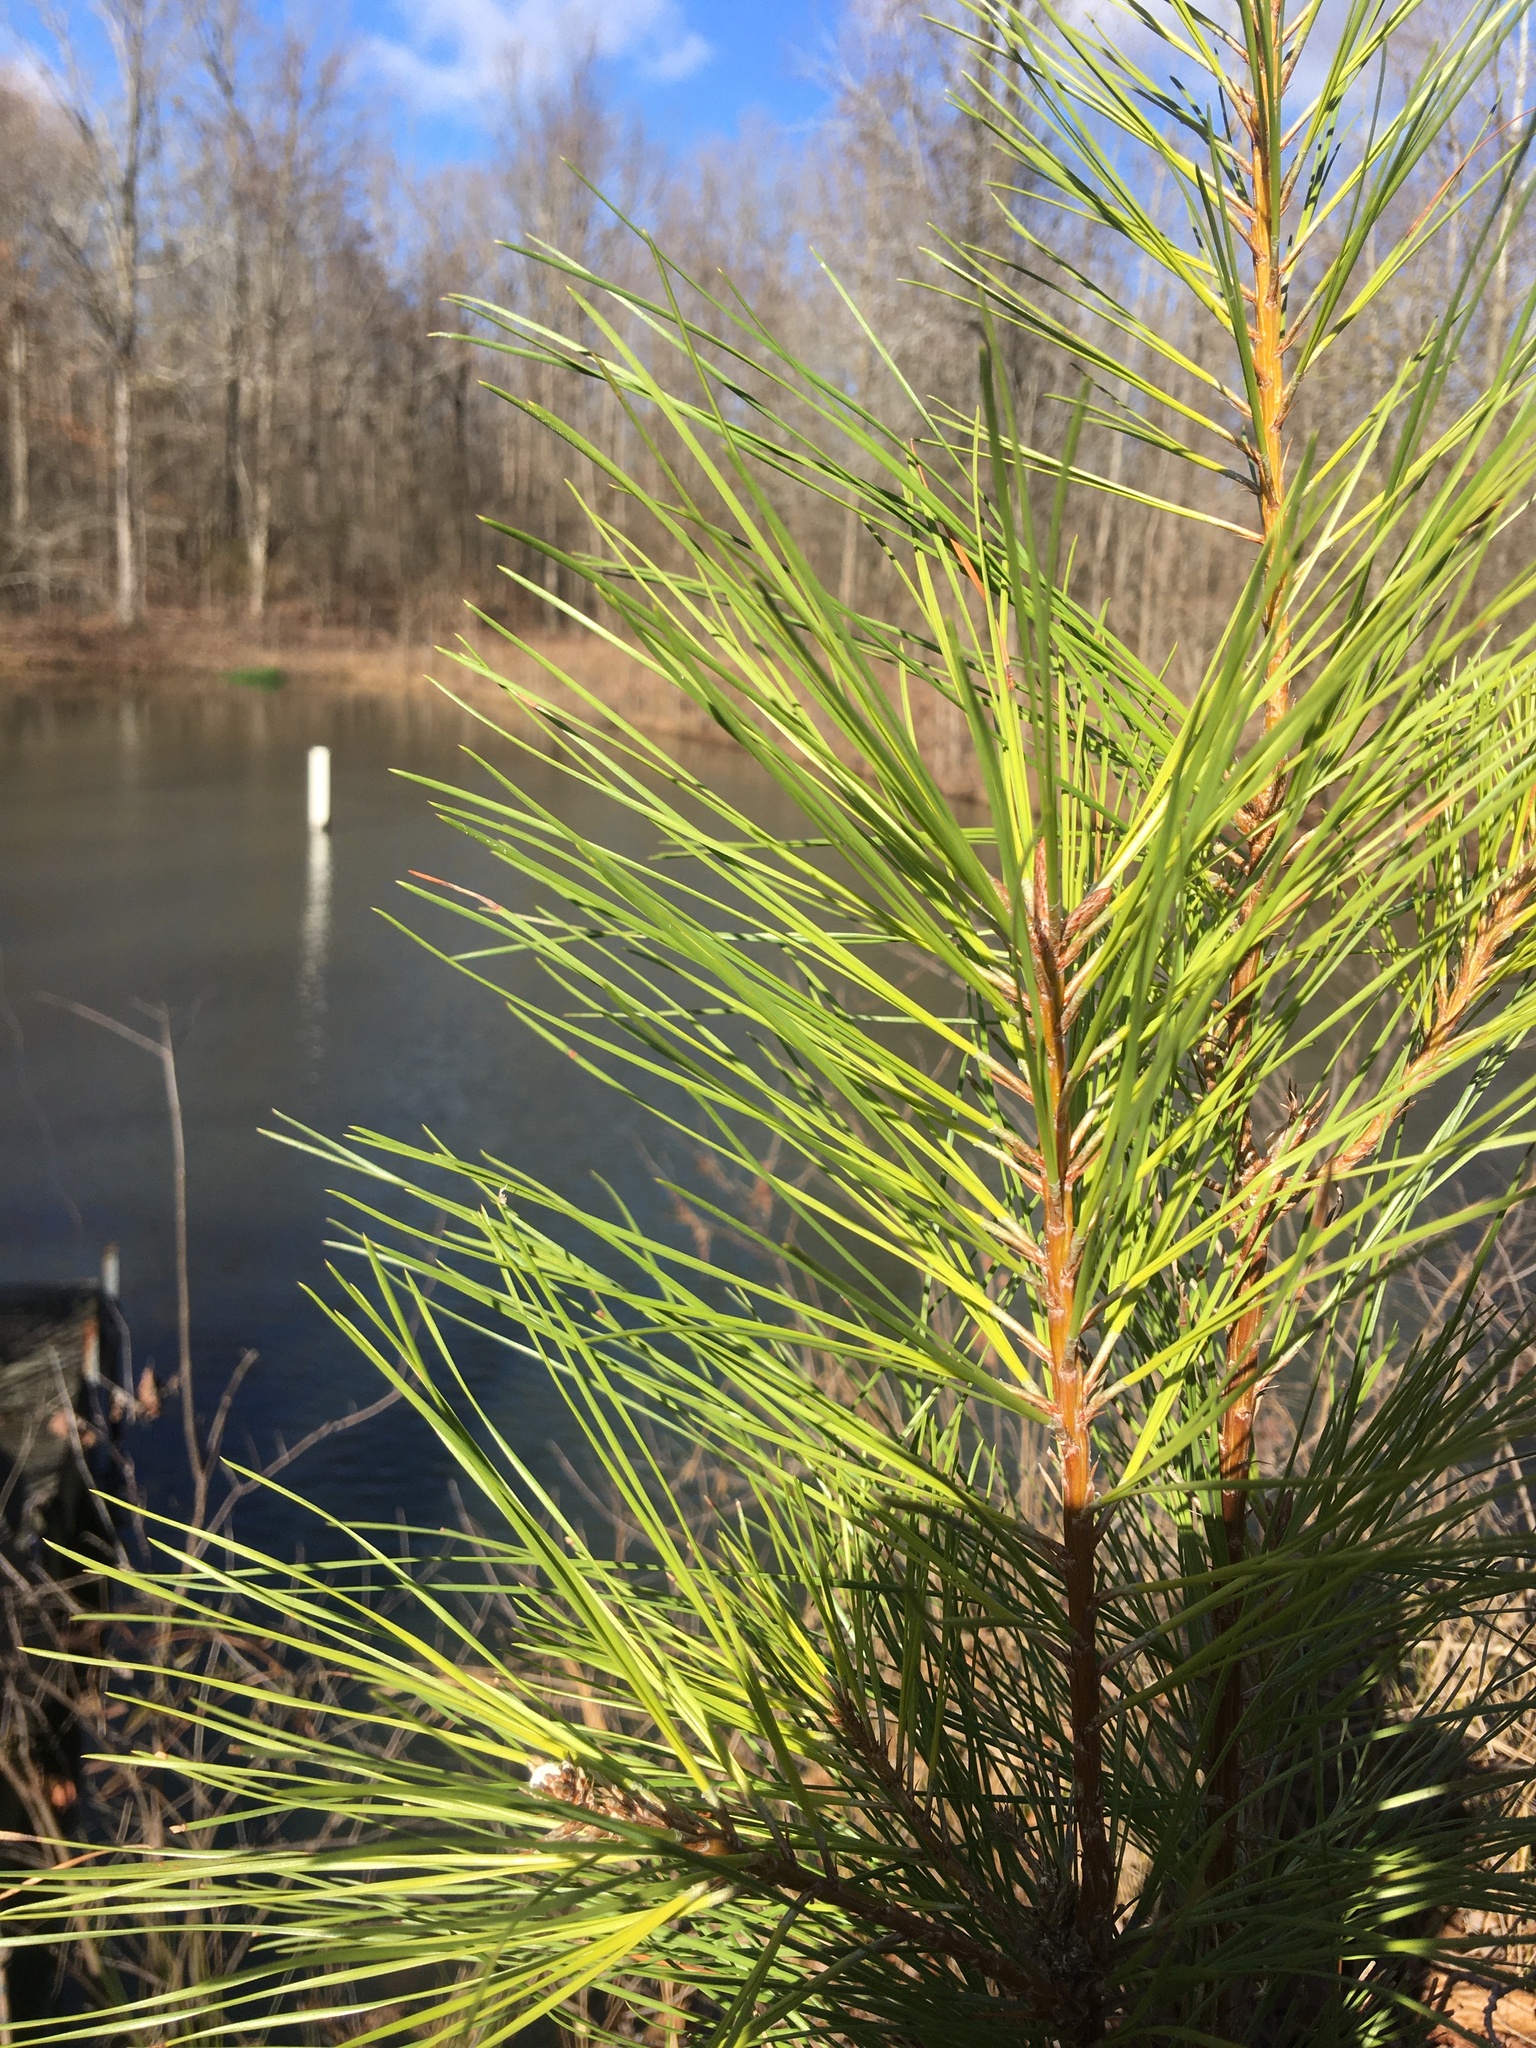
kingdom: Plantae
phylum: Tracheophyta
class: Pinopsida
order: Pinales
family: Pinaceae
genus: Pinus
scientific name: Pinus taeda
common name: Loblolly pine
